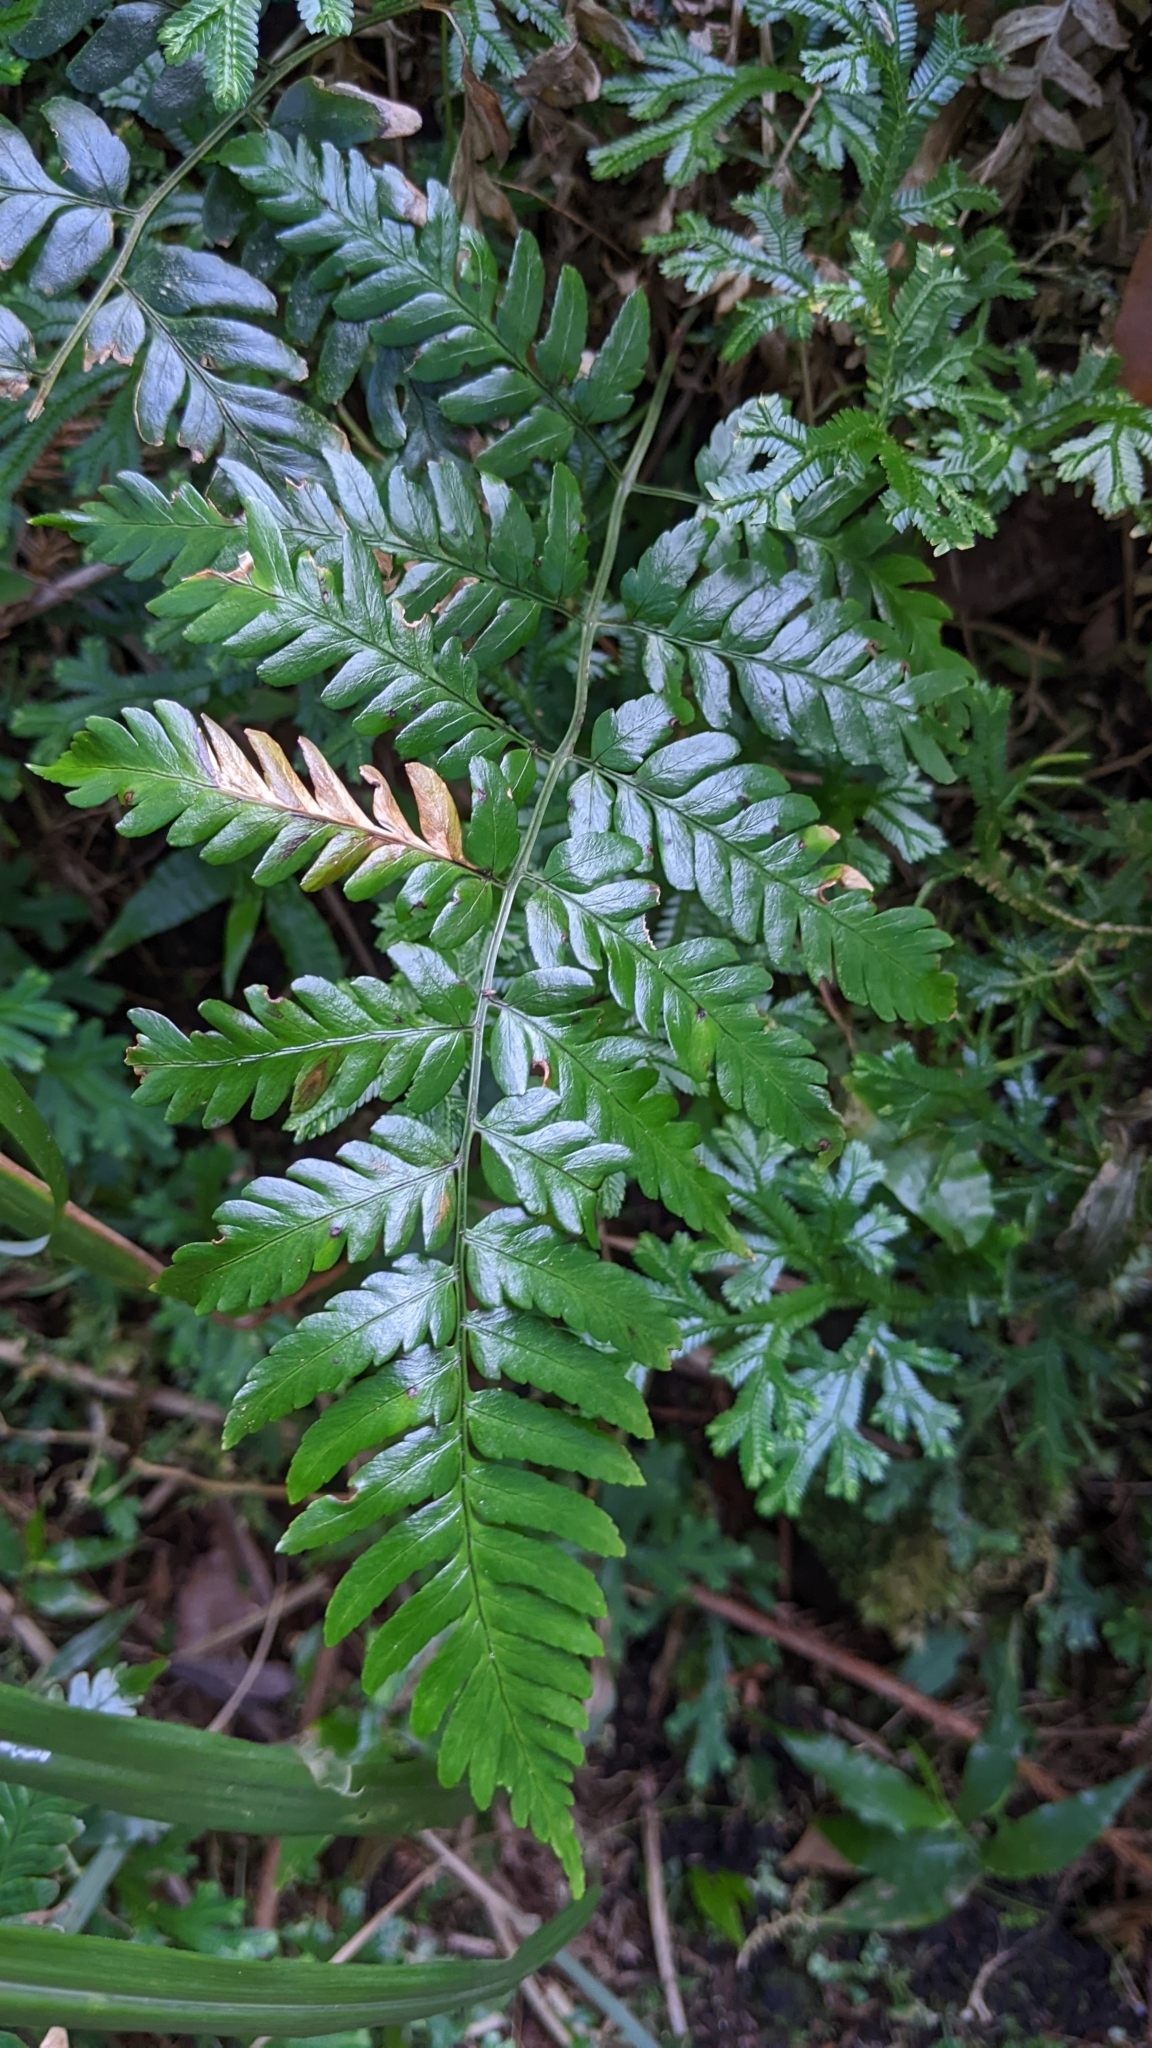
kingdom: Plantae
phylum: Tracheophyta
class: Polypodiopsida
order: Polypodiales
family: Dryopteridaceae
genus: Dryopteris
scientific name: Dryopteris polita
